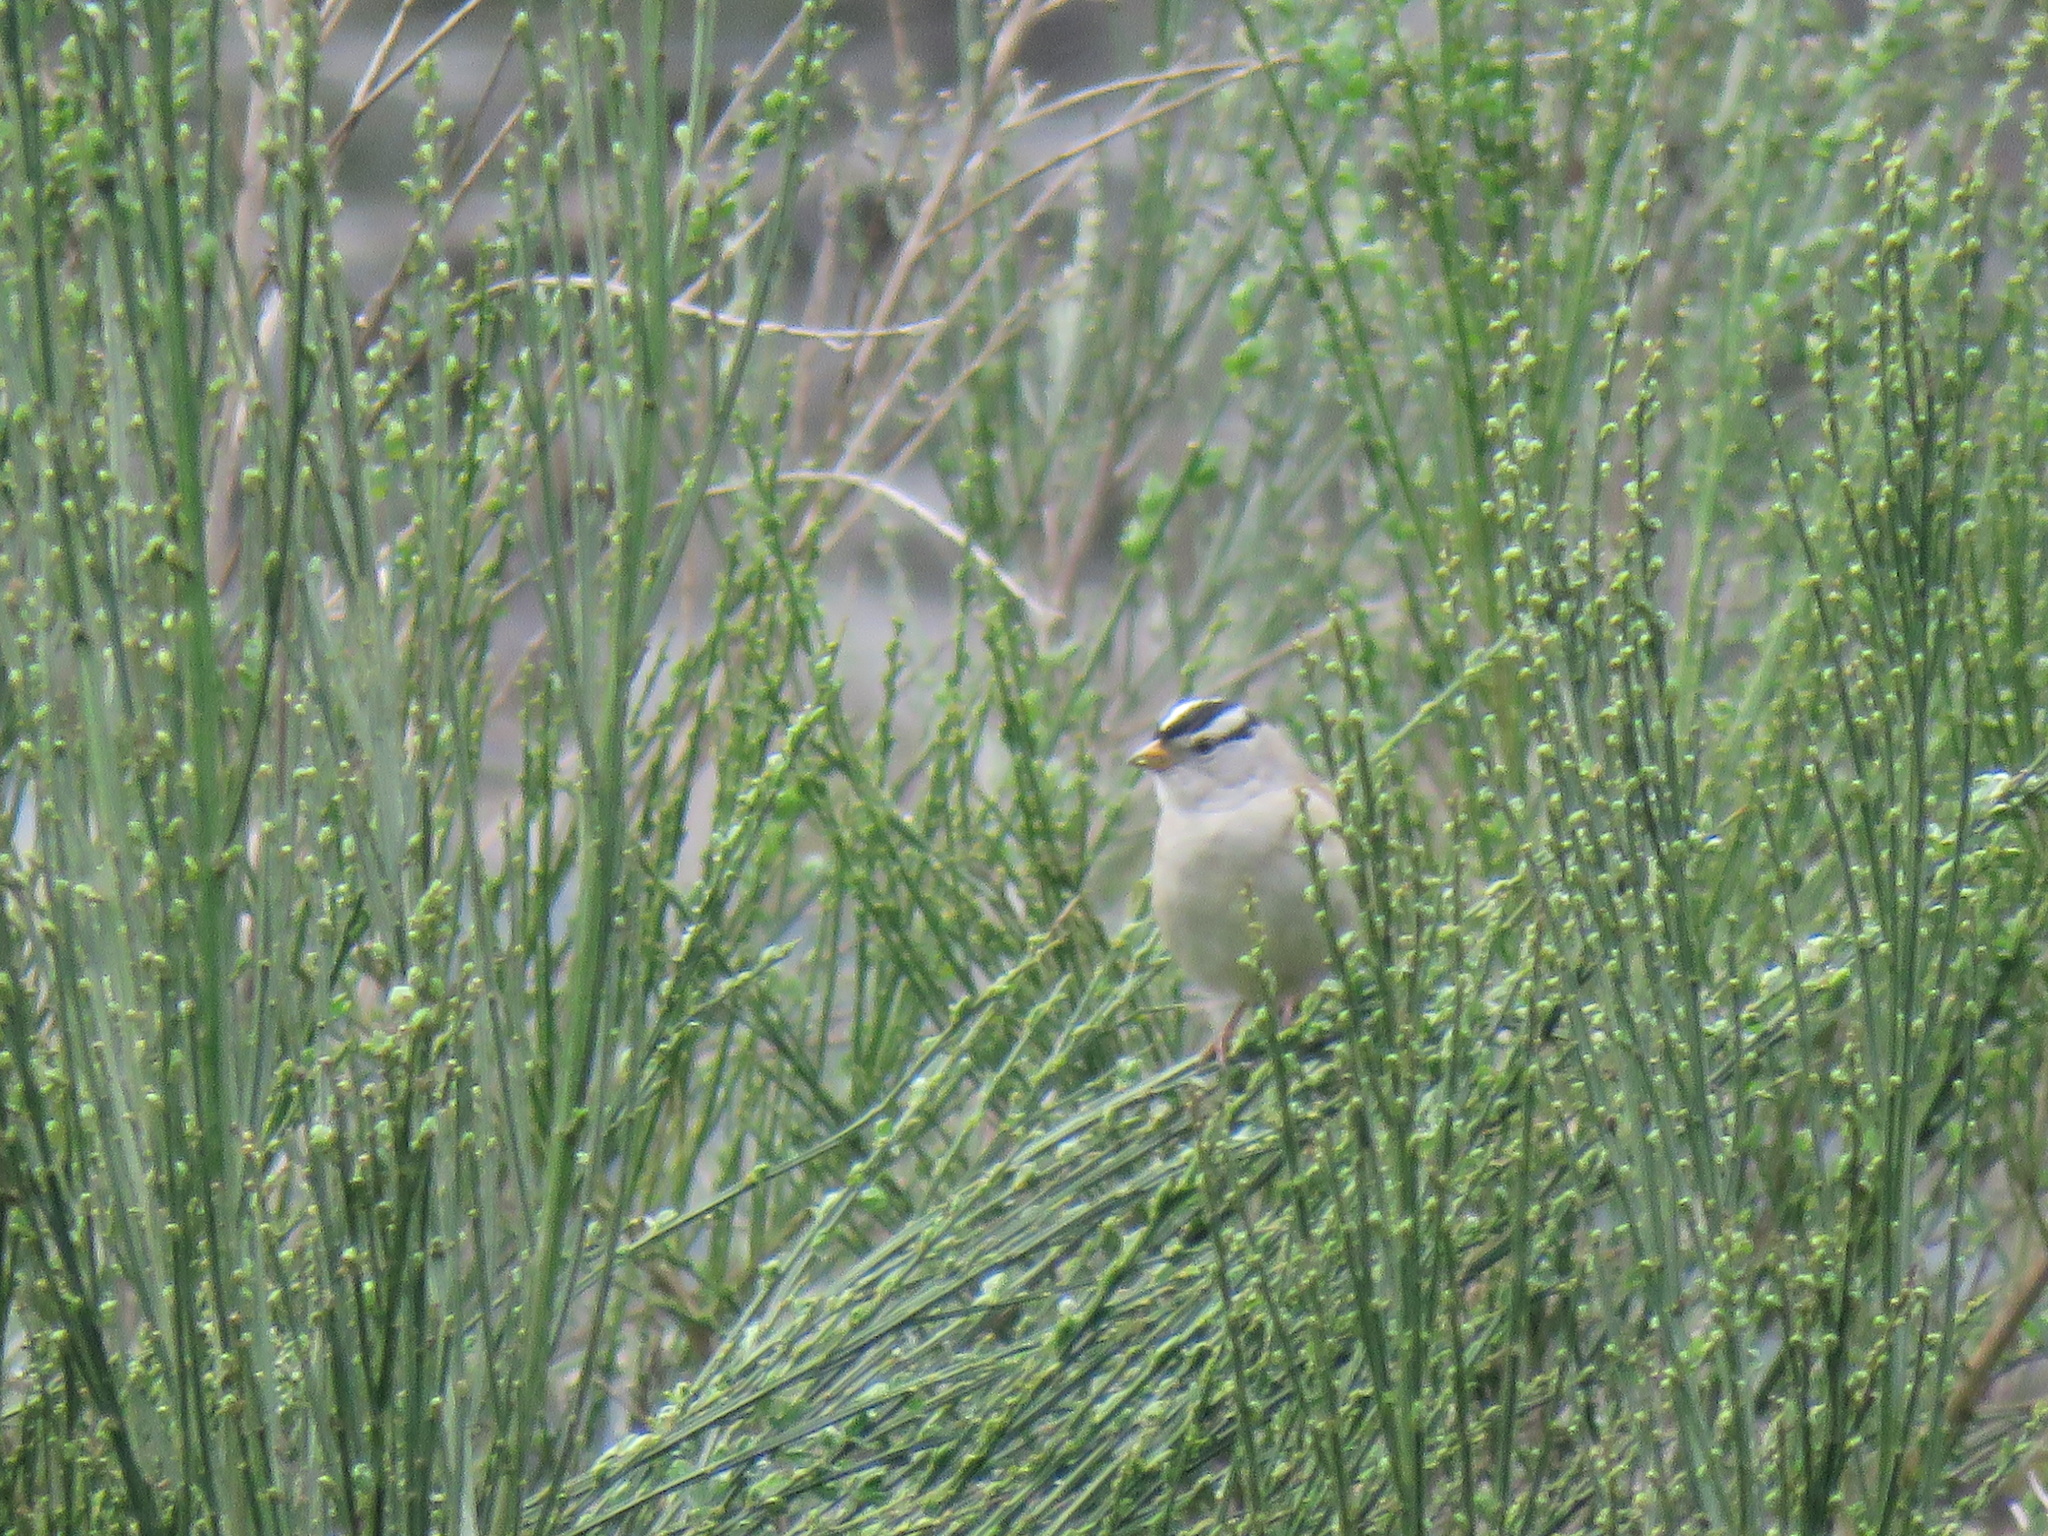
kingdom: Animalia
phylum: Chordata
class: Aves
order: Passeriformes
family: Passerellidae
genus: Zonotrichia
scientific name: Zonotrichia leucophrys
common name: White-crowned sparrow
